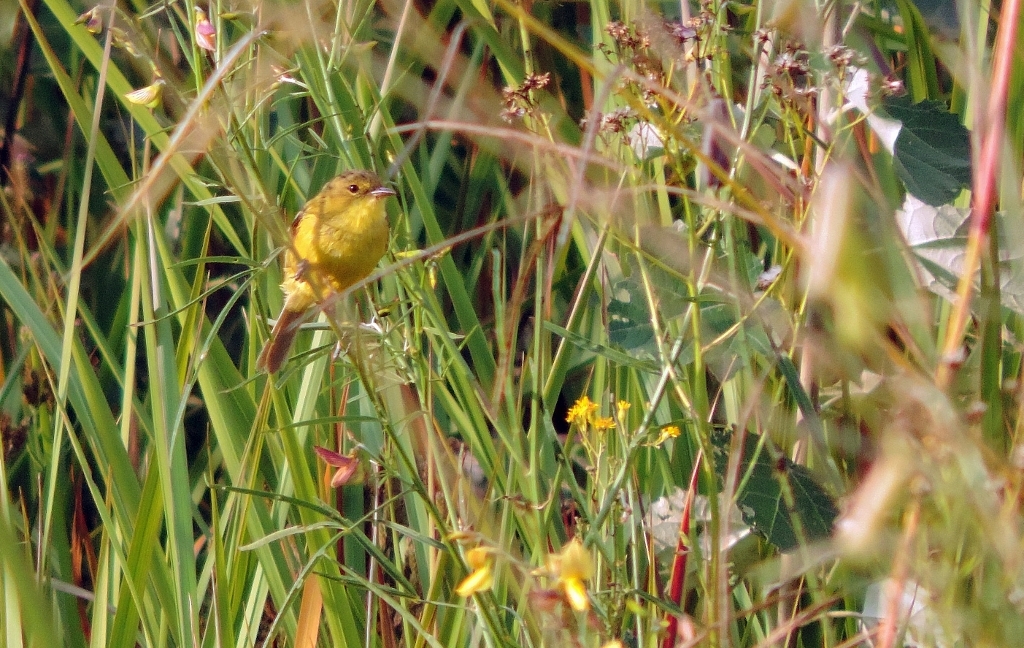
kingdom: Animalia
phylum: Chordata
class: Aves
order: Passeriformes
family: Acrocephalidae
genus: Iduna
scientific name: Iduna natalensis
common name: African yellow warbler
